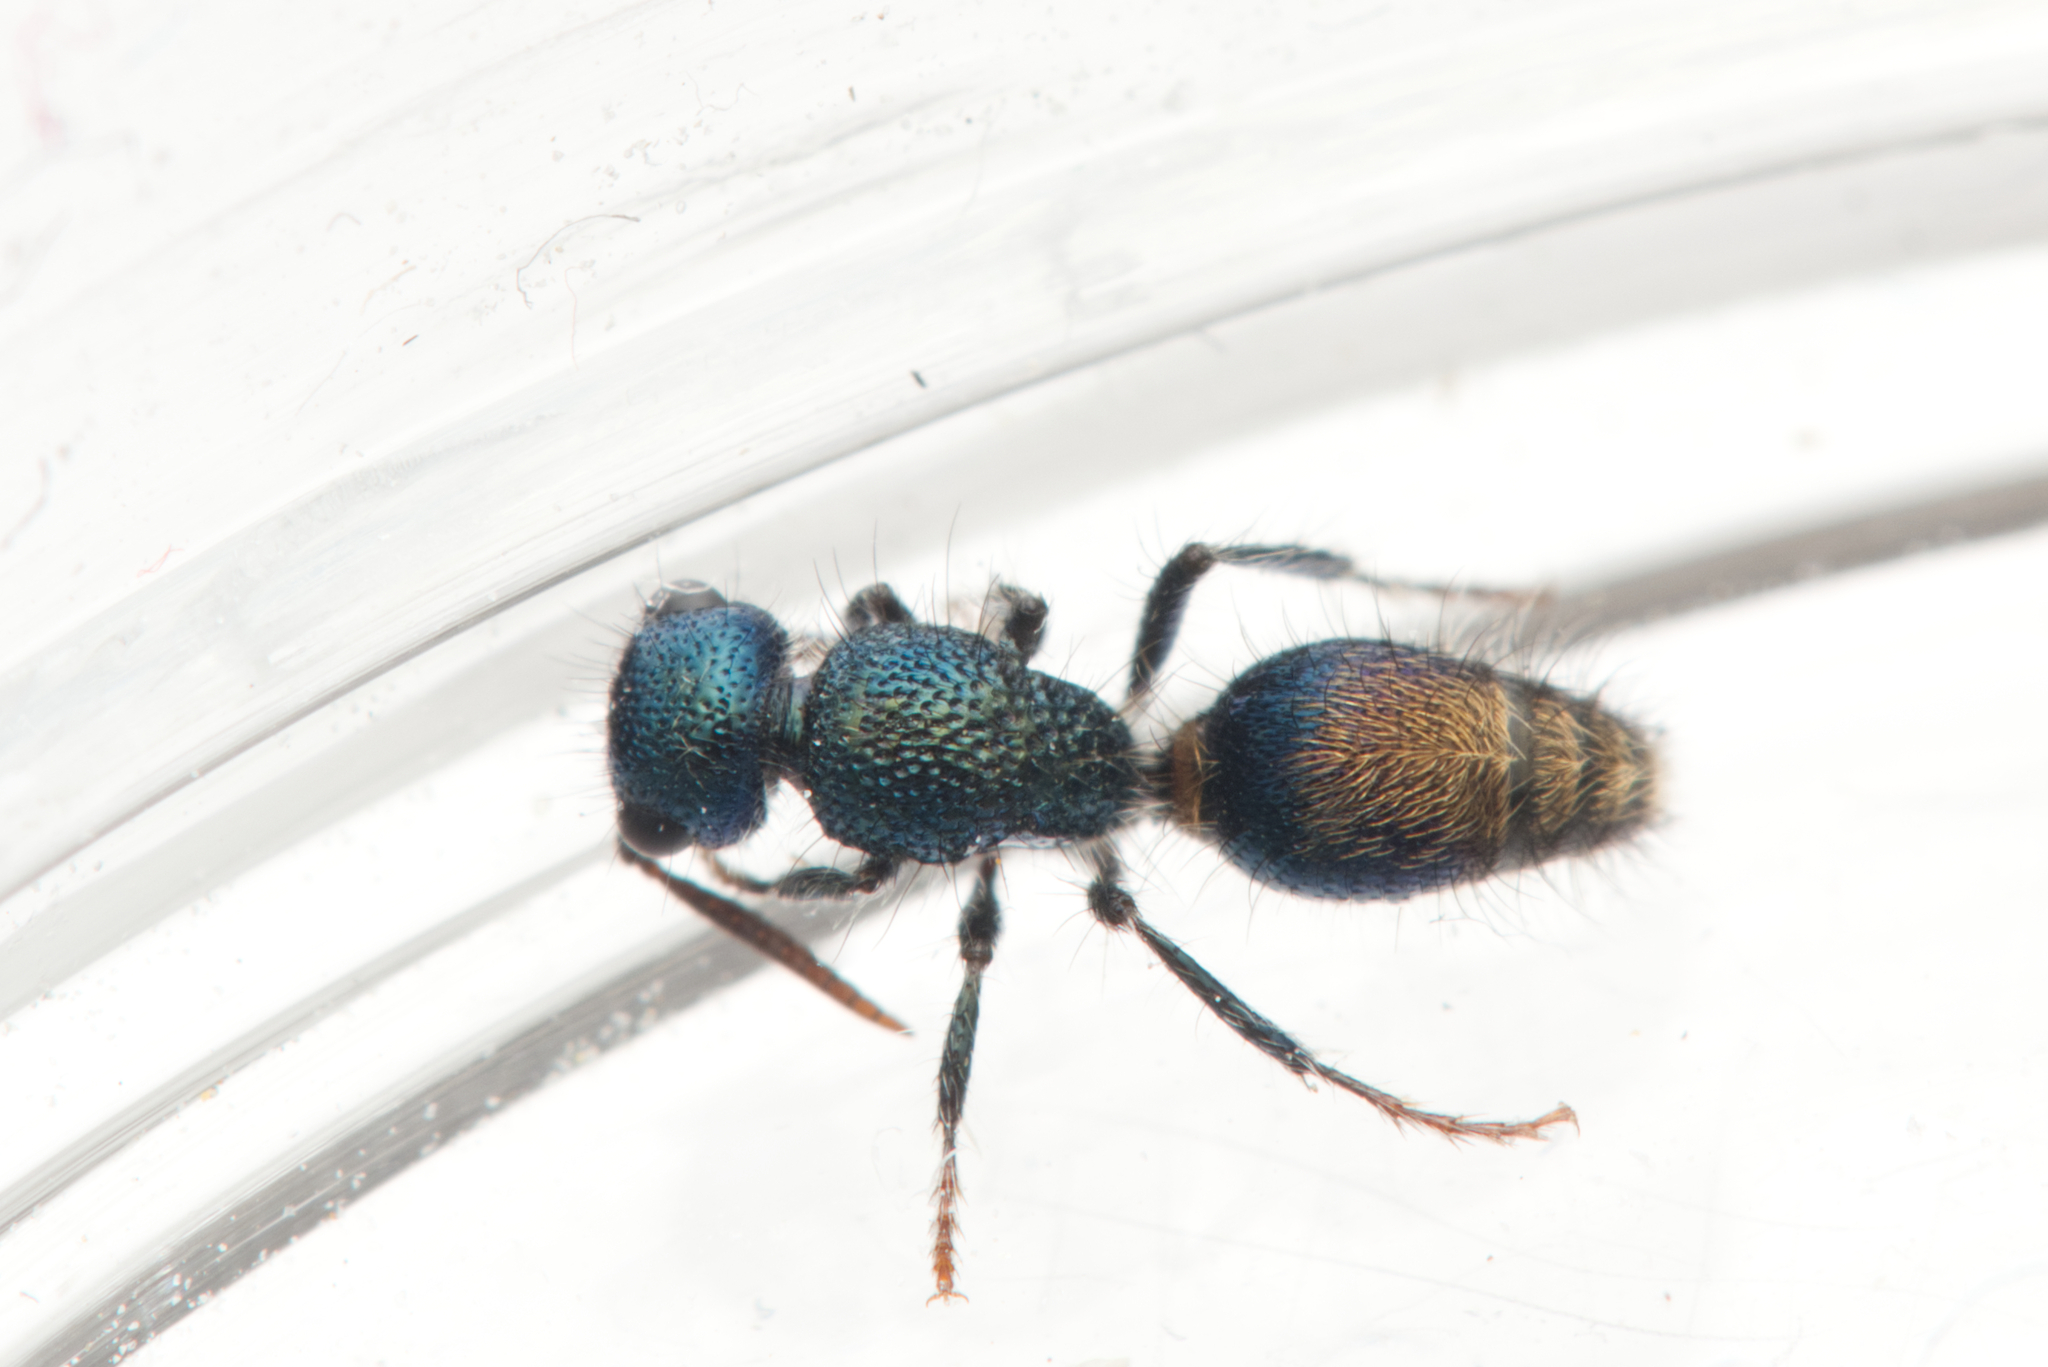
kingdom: Animalia
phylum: Arthropoda
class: Insecta
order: Hymenoptera
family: Mutillidae
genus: Ephutomorpha
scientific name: Ephutomorpha
